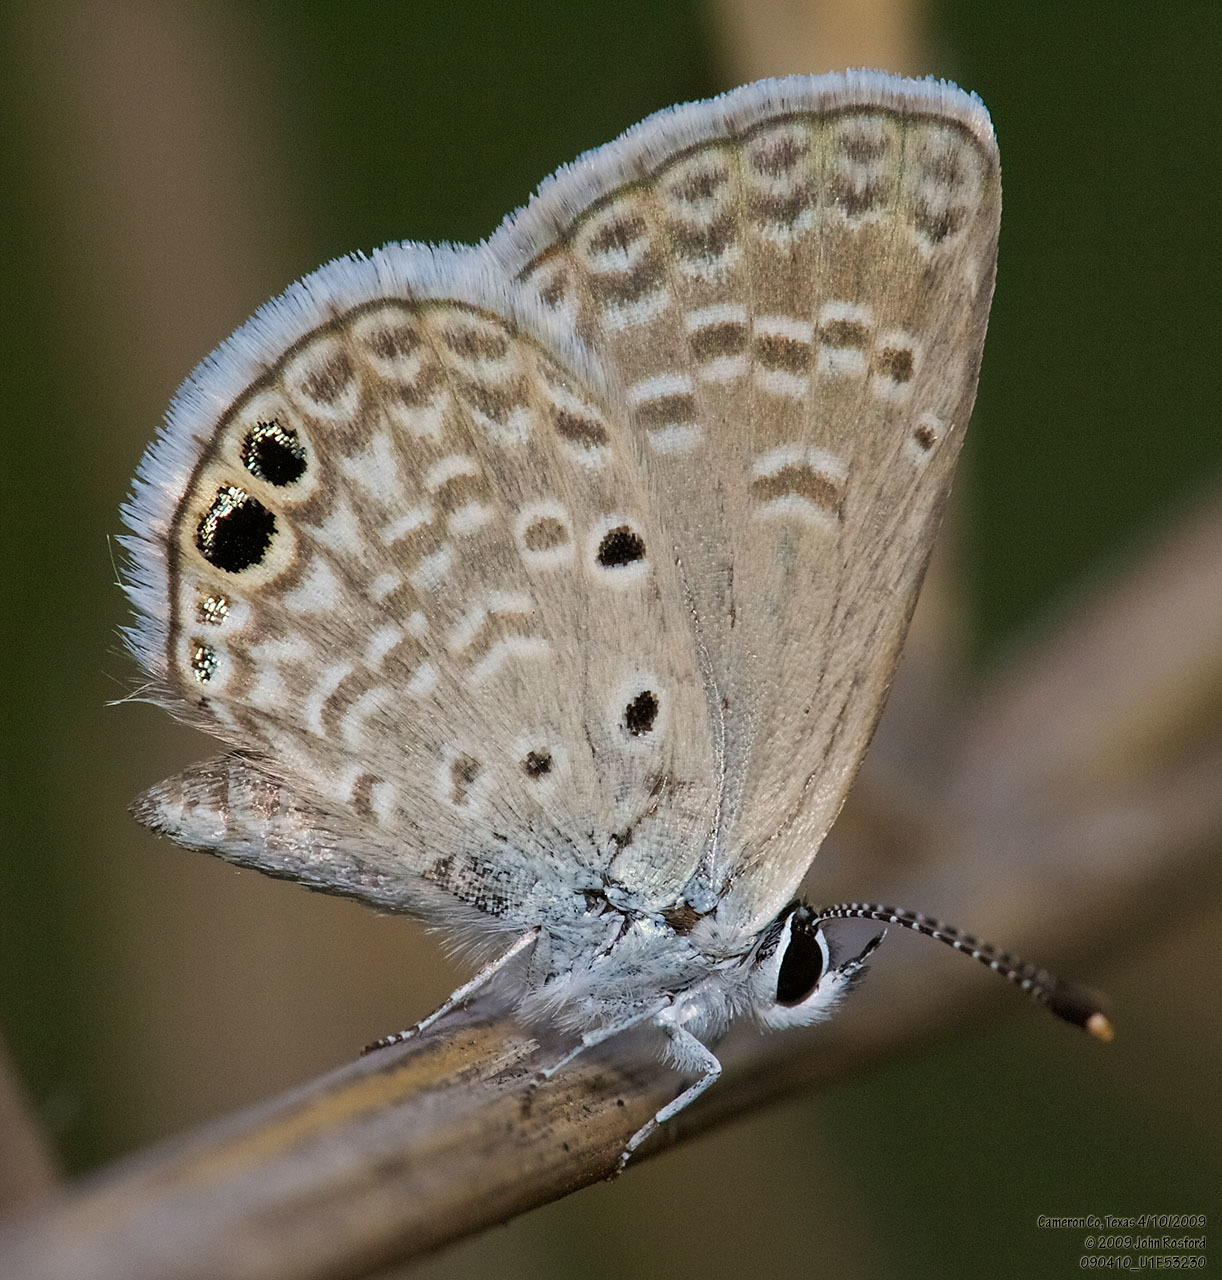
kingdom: Animalia
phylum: Arthropoda
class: Insecta
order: Lepidoptera
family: Lycaenidae
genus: Hemiargus
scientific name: Hemiargus ceraunus
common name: Ceraunus blue
